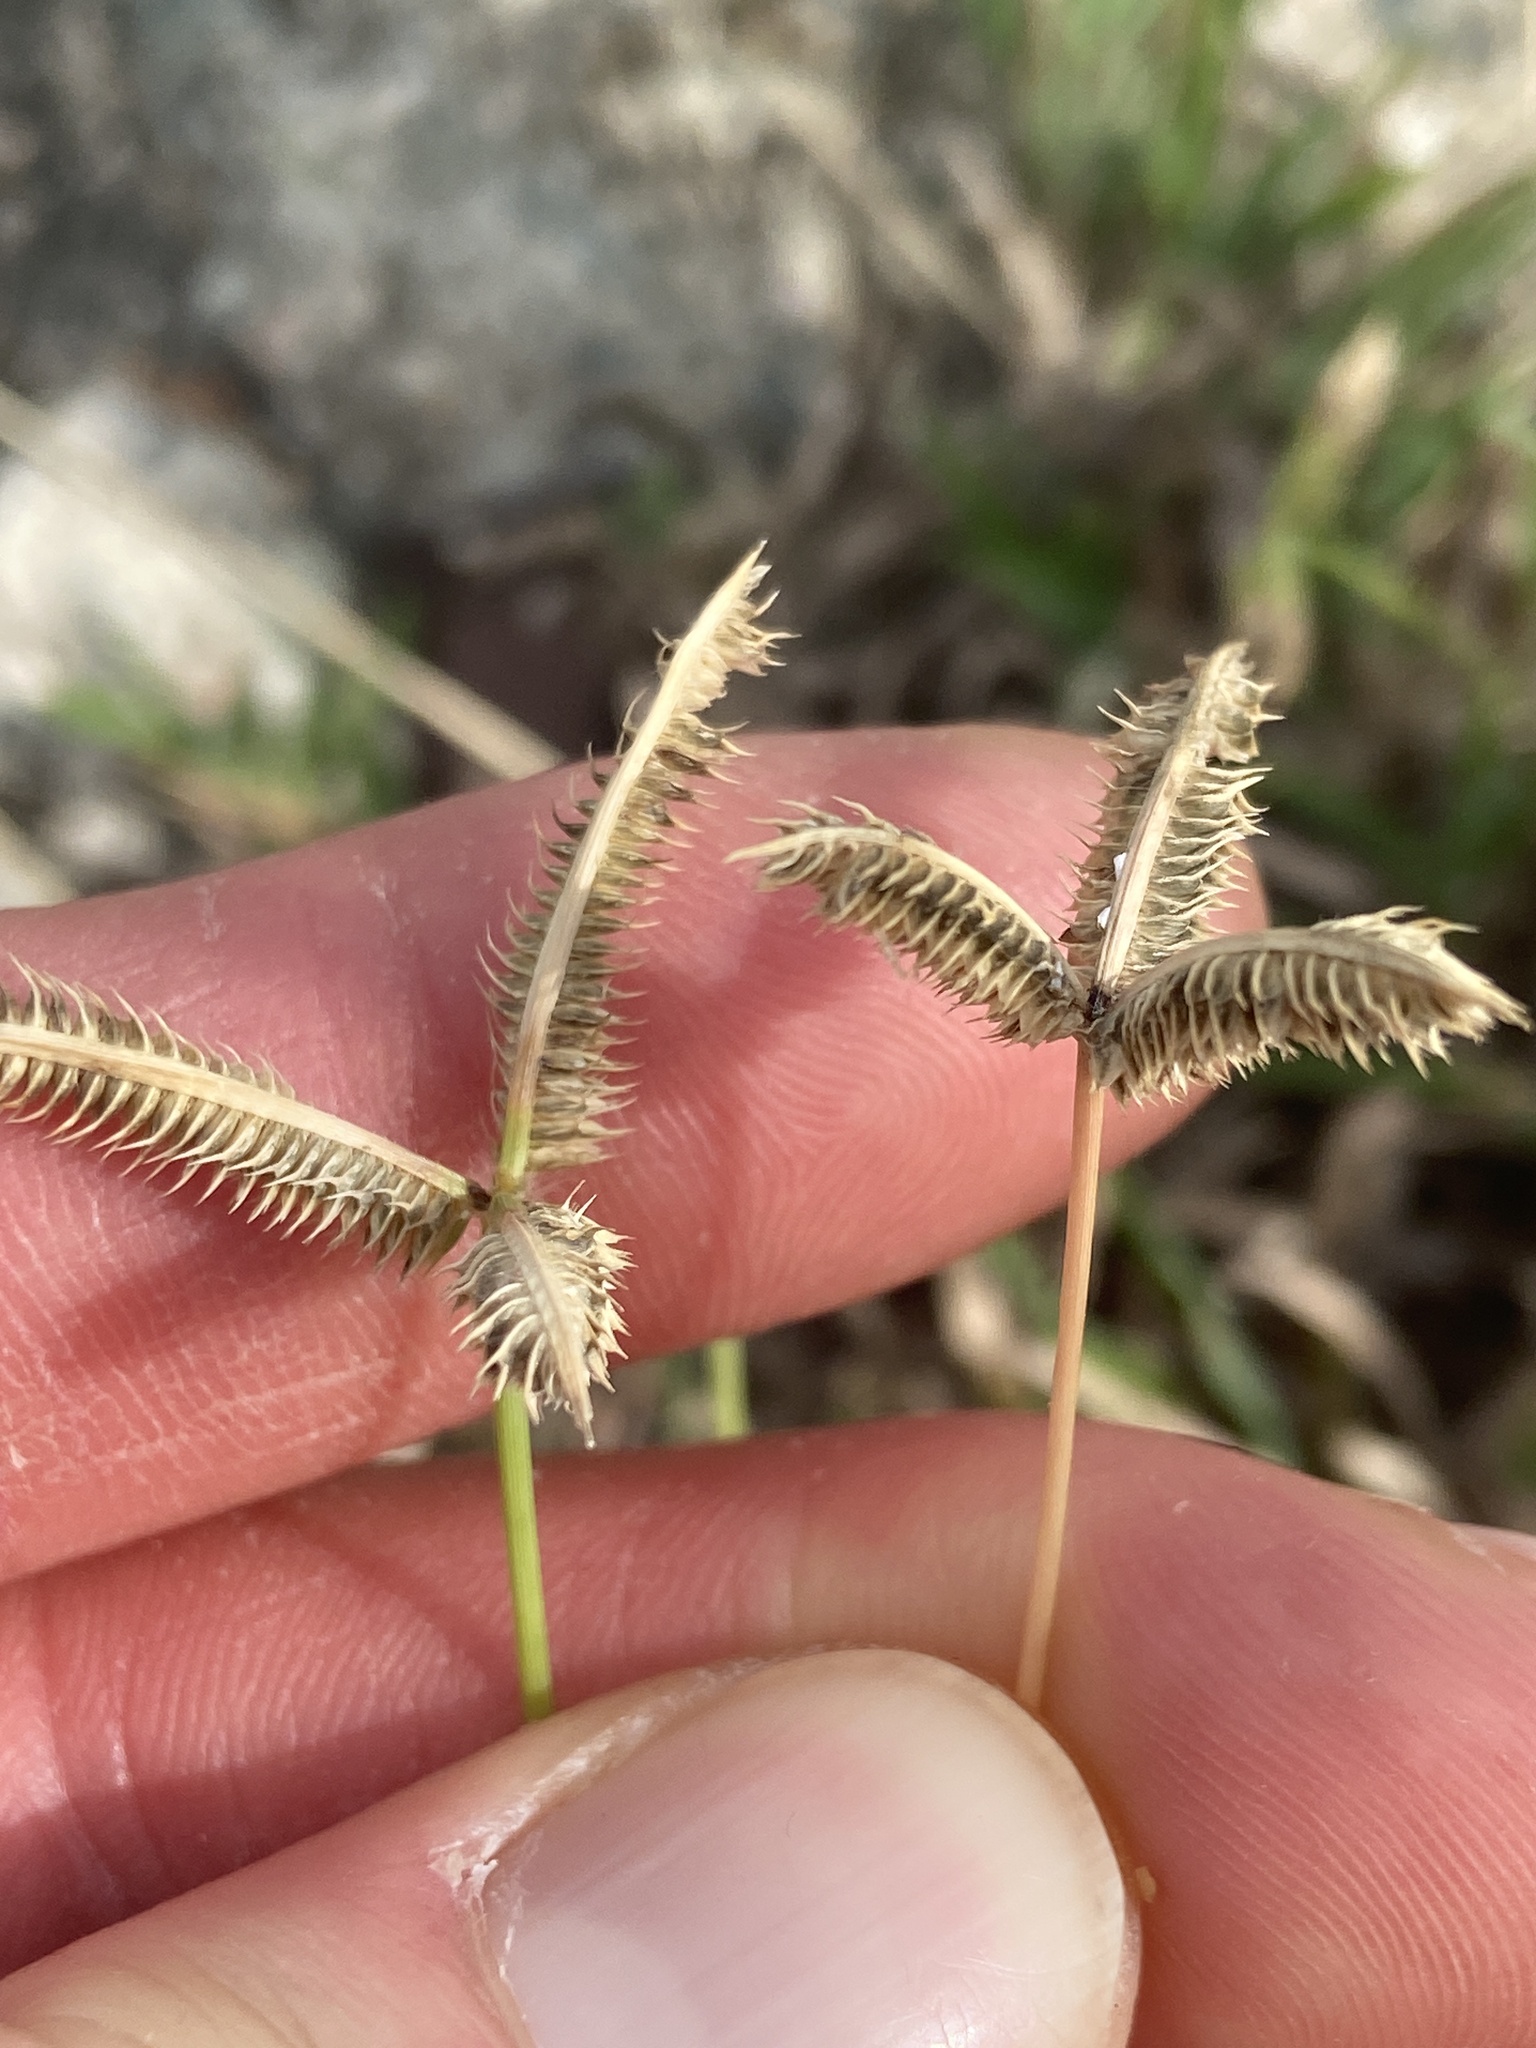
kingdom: Plantae
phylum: Tracheophyta
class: Liliopsida
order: Poales
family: Poaceae
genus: Dactyloctenium
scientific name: Dactyloctenium aegyptium
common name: Egyptian grass
